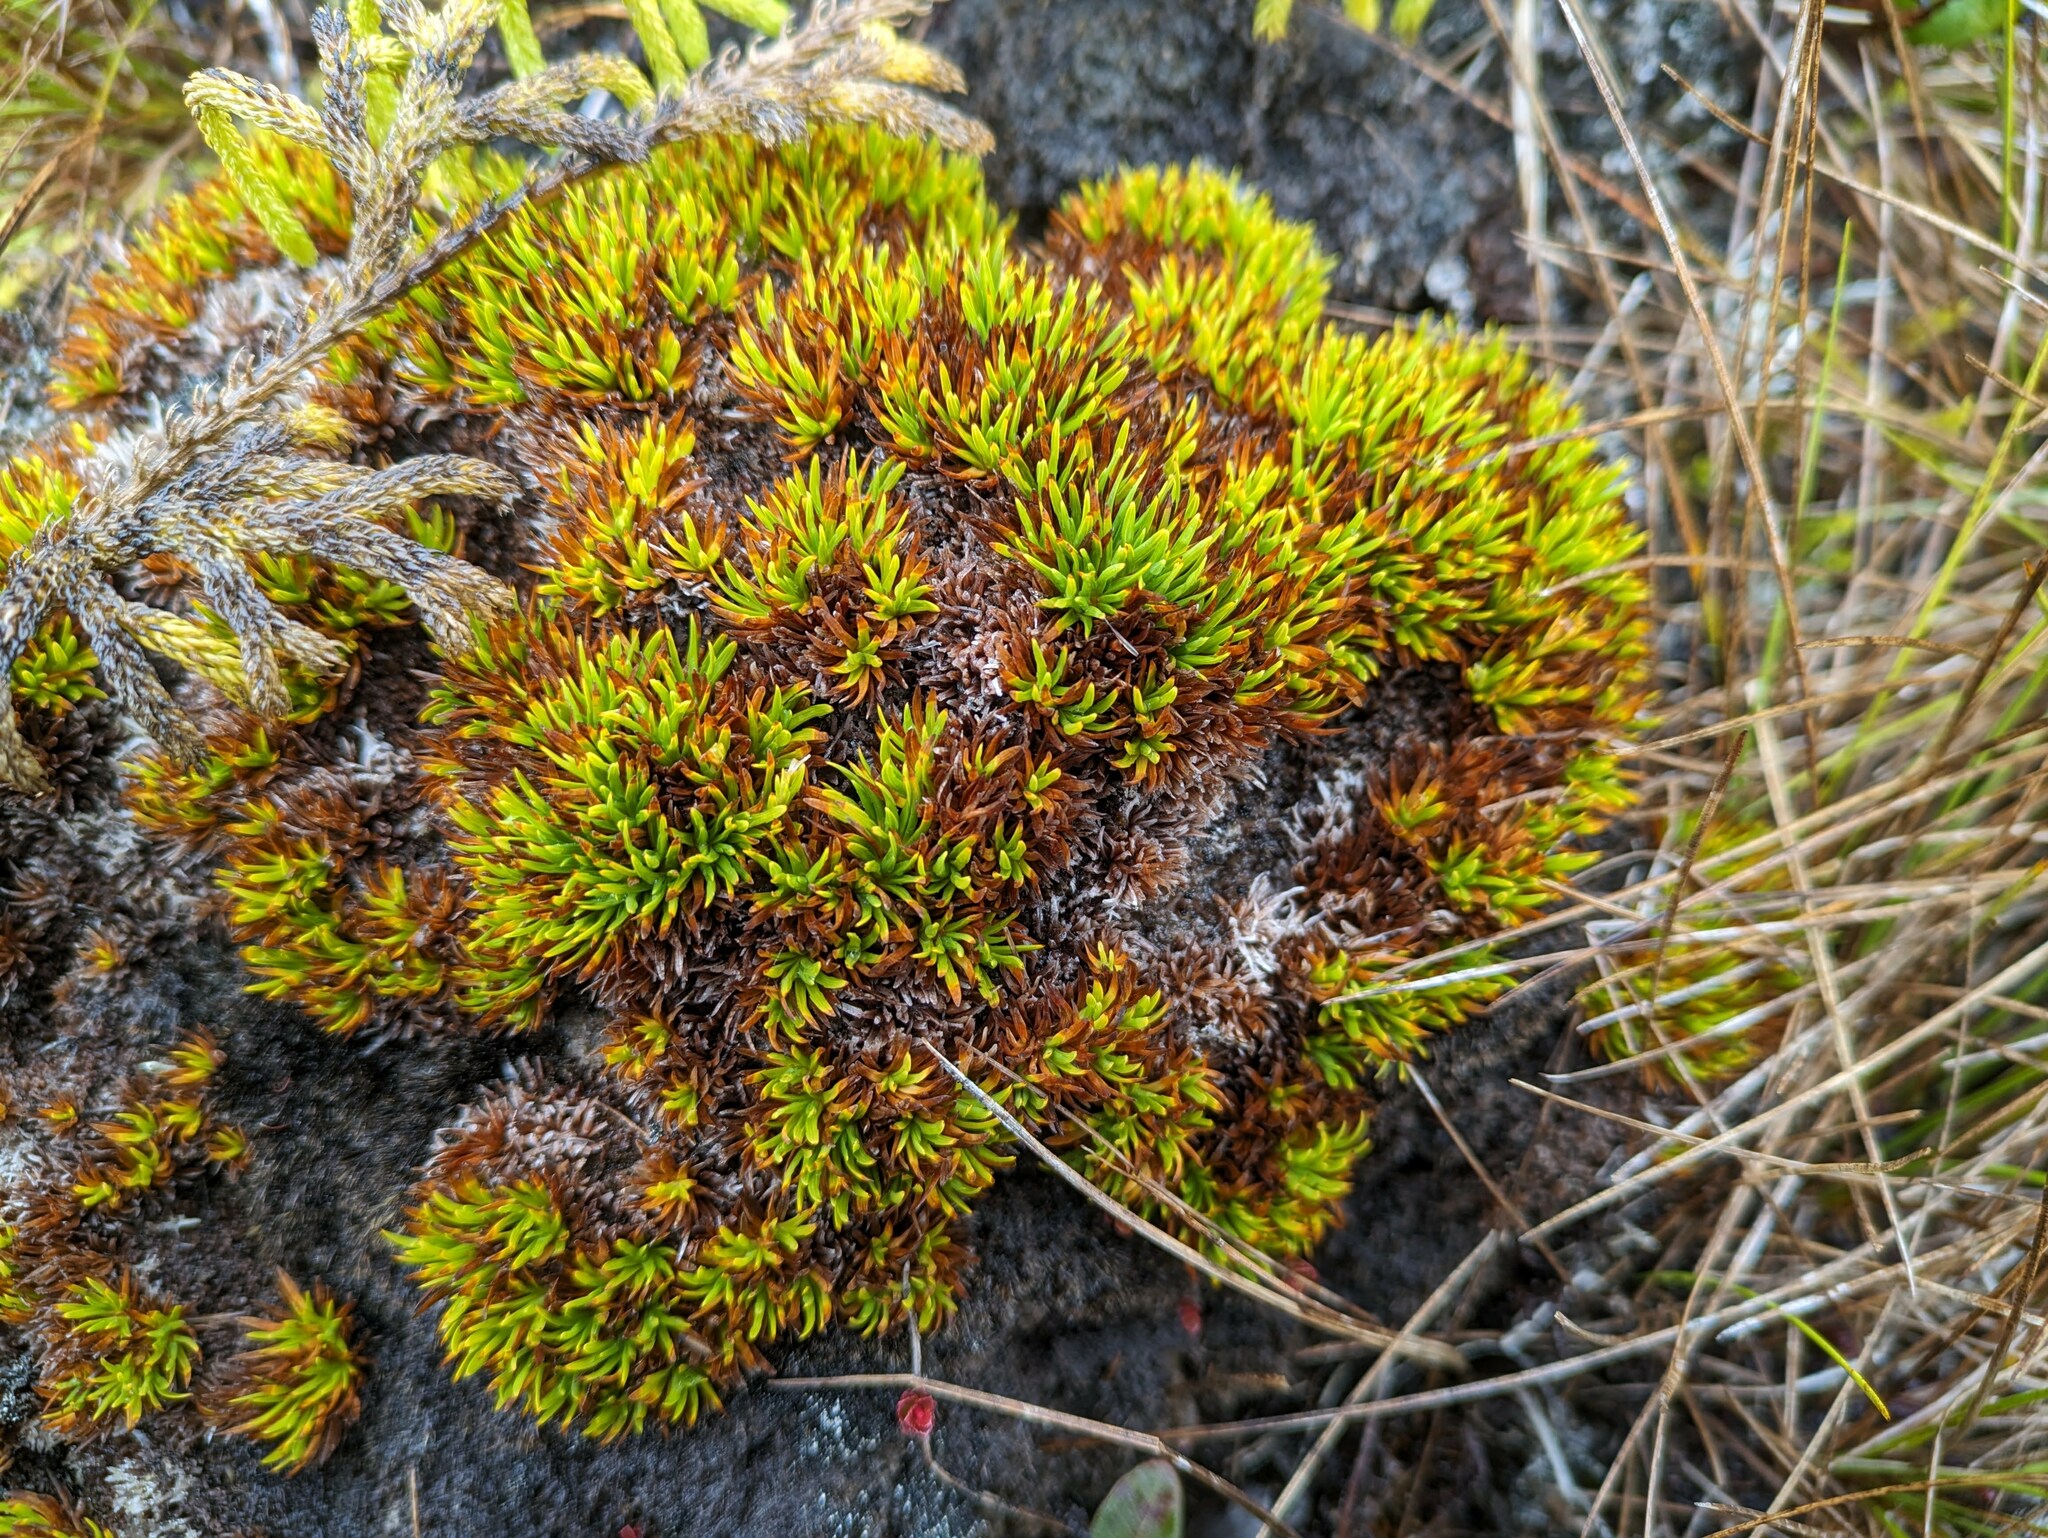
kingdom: Plantae
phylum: Tracheophyta
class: Liliopsida
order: Poales
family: Cyperaceae
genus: Oreobolus
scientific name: Oreobolus furcatus
